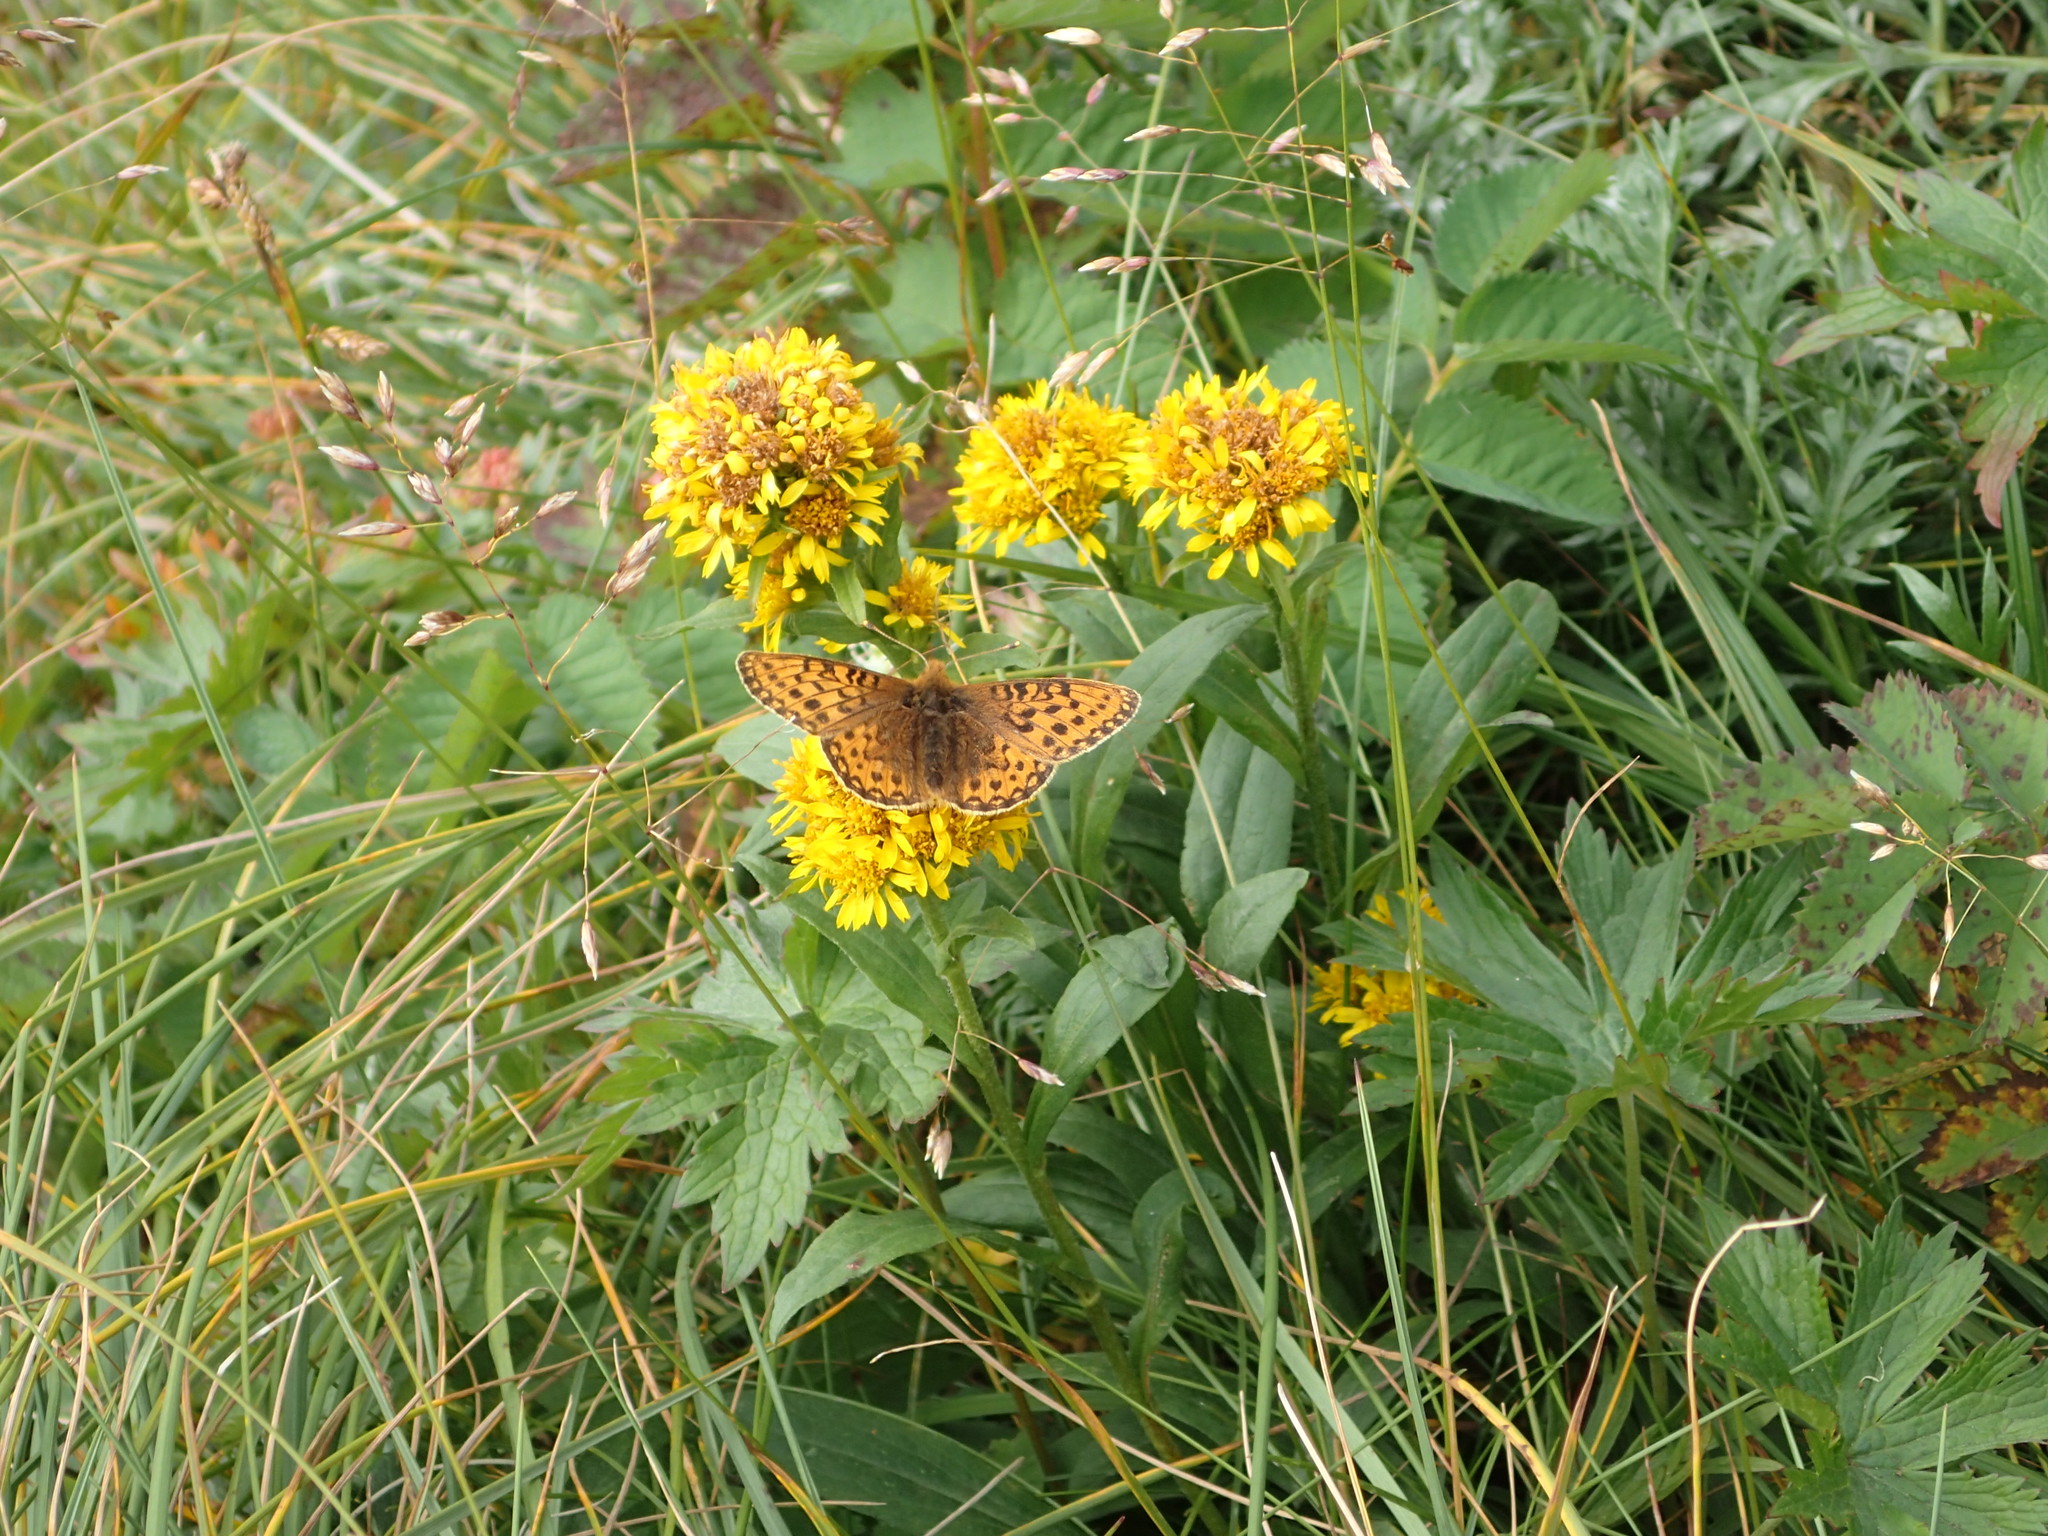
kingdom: Plantae
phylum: Tracheophyta
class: Magnoliopsida
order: Asterales
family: Asteraceae
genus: Solidago
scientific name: Solidago multiradiata
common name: Northern goldenrod
